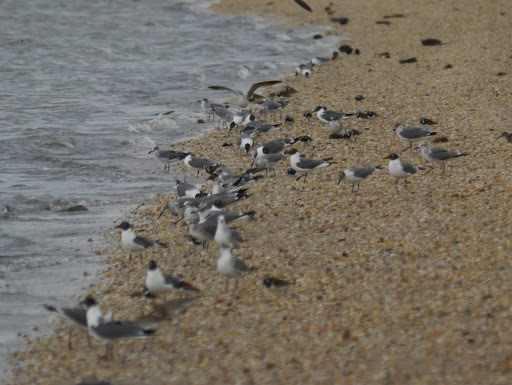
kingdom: Animalia
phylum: Chordata
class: Aves
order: Charadriiformes
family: Laridae
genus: Leucophaeus
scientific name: Leucophaeus atricilla
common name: Laughing gull
